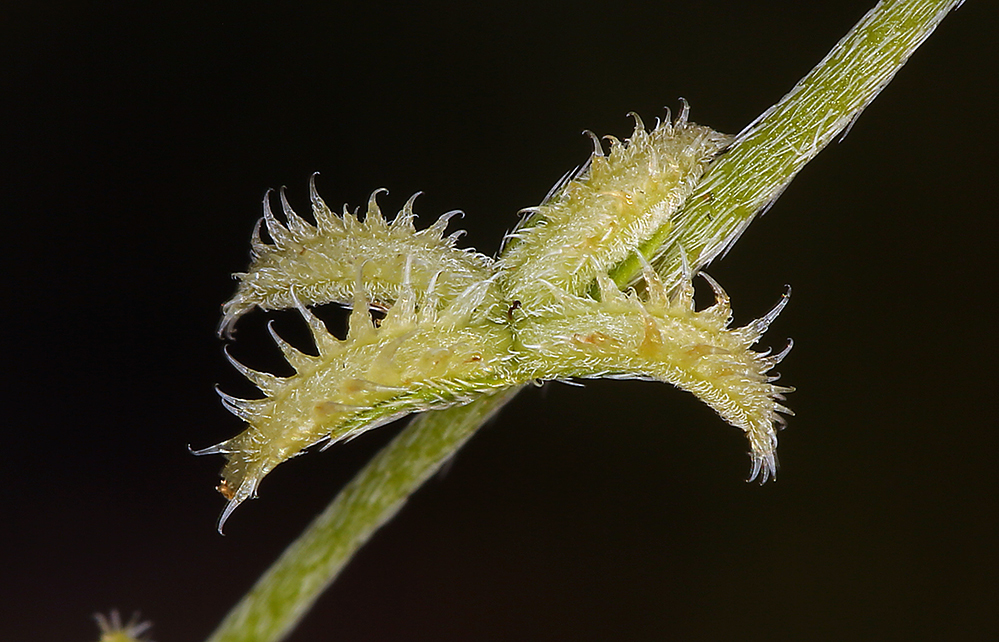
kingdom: Plantae
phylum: Tracheophyta
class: Magnoliopsida
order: Boraginales
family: Boraginaceae
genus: Pectocarya
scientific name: Pectocarya platycarpa
